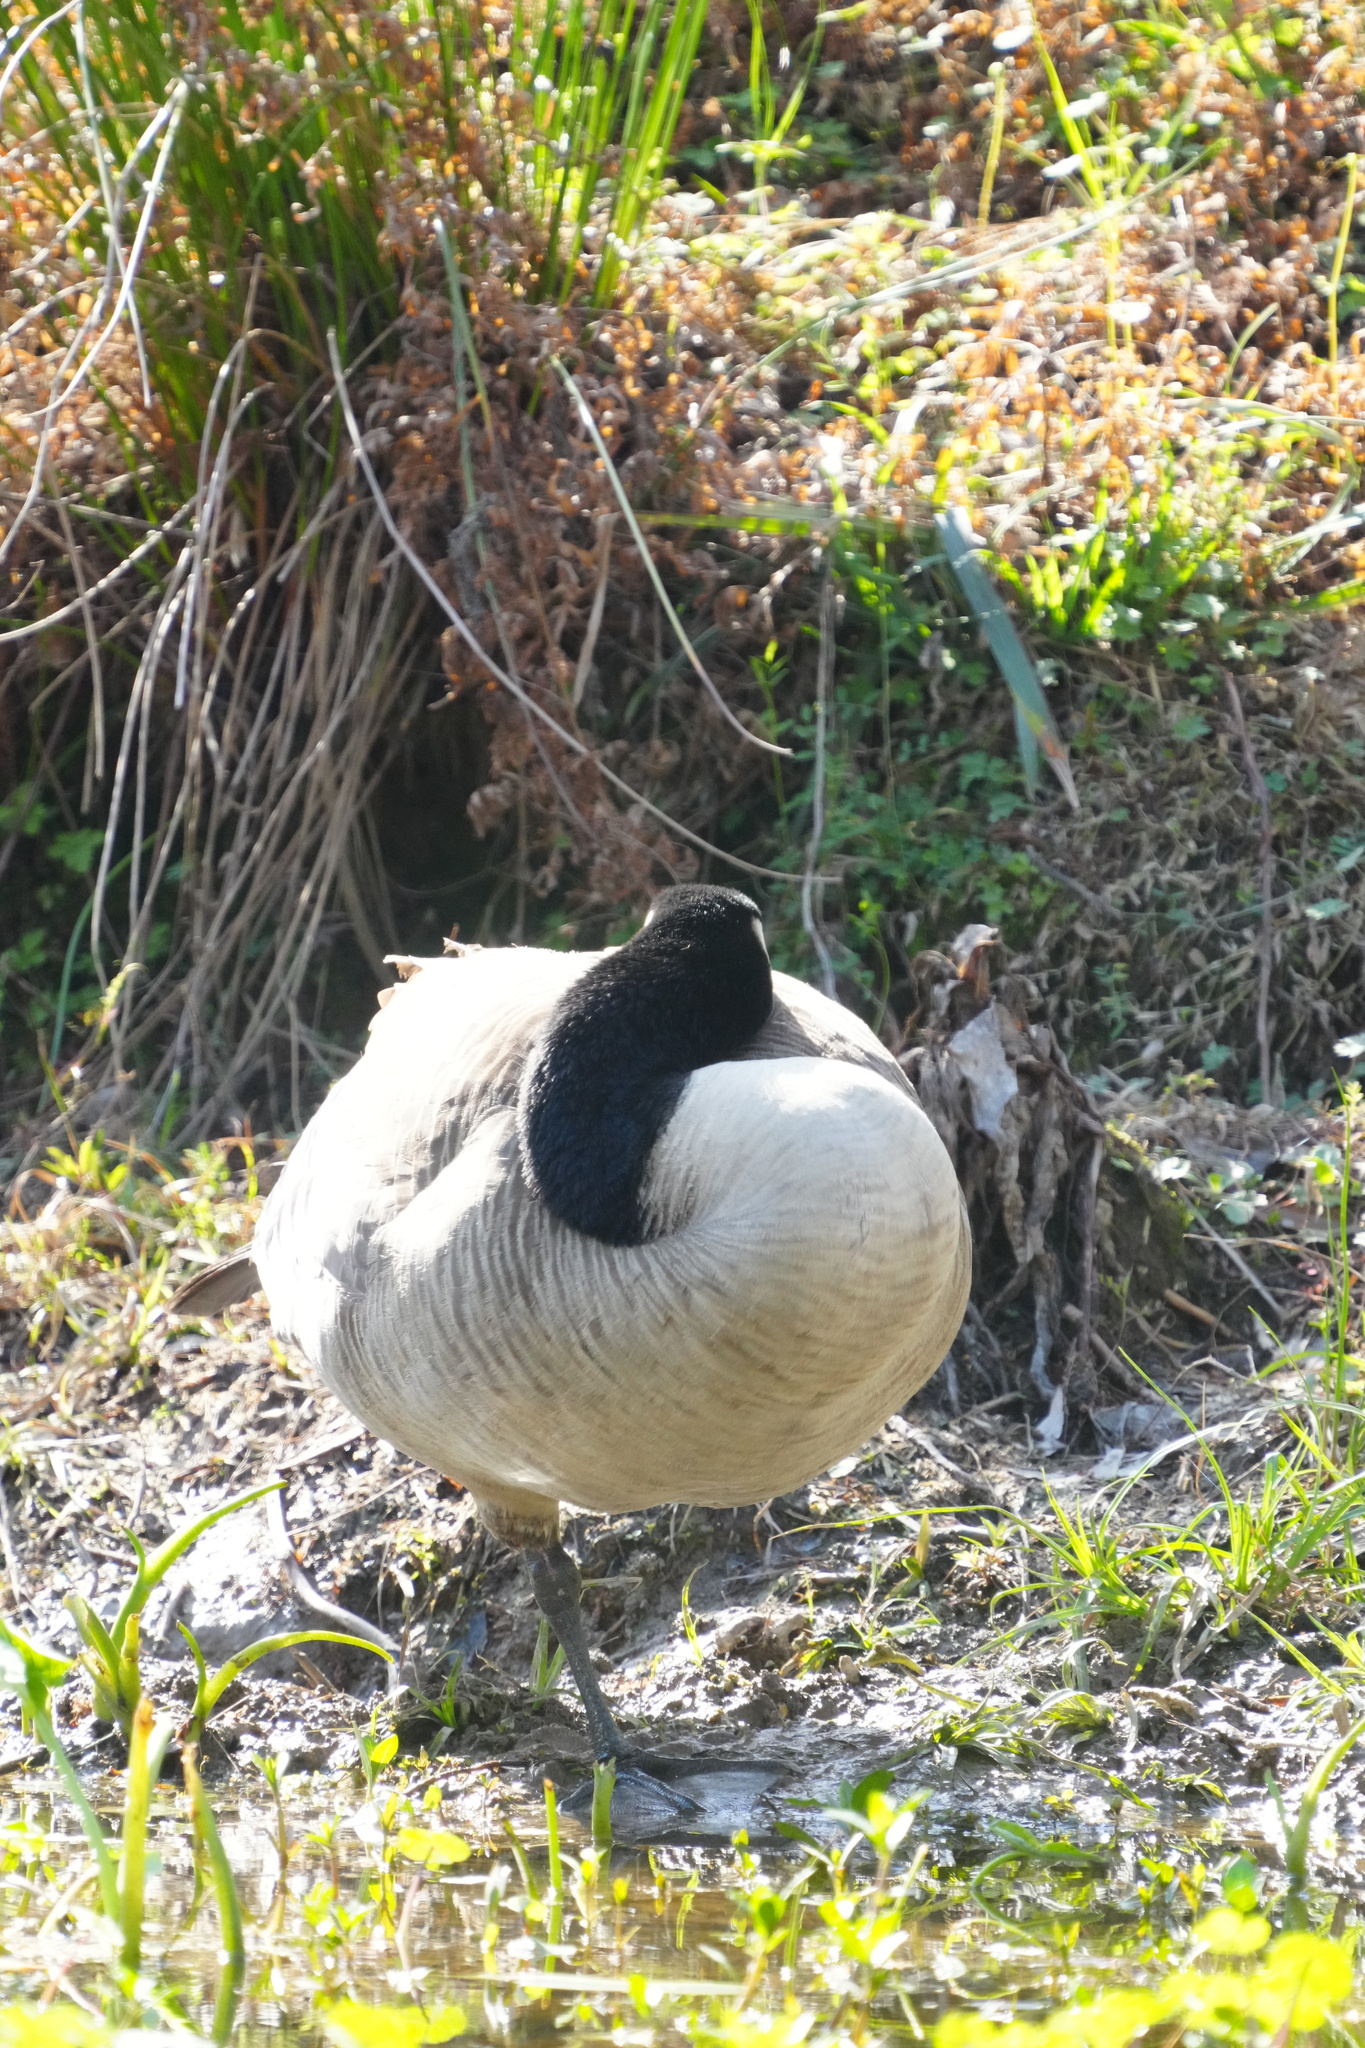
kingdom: Animalia
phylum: Chordata
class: Aves
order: Anseriformes
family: Anatidae
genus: Branta
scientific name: Branta canadensis
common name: Canada goose
